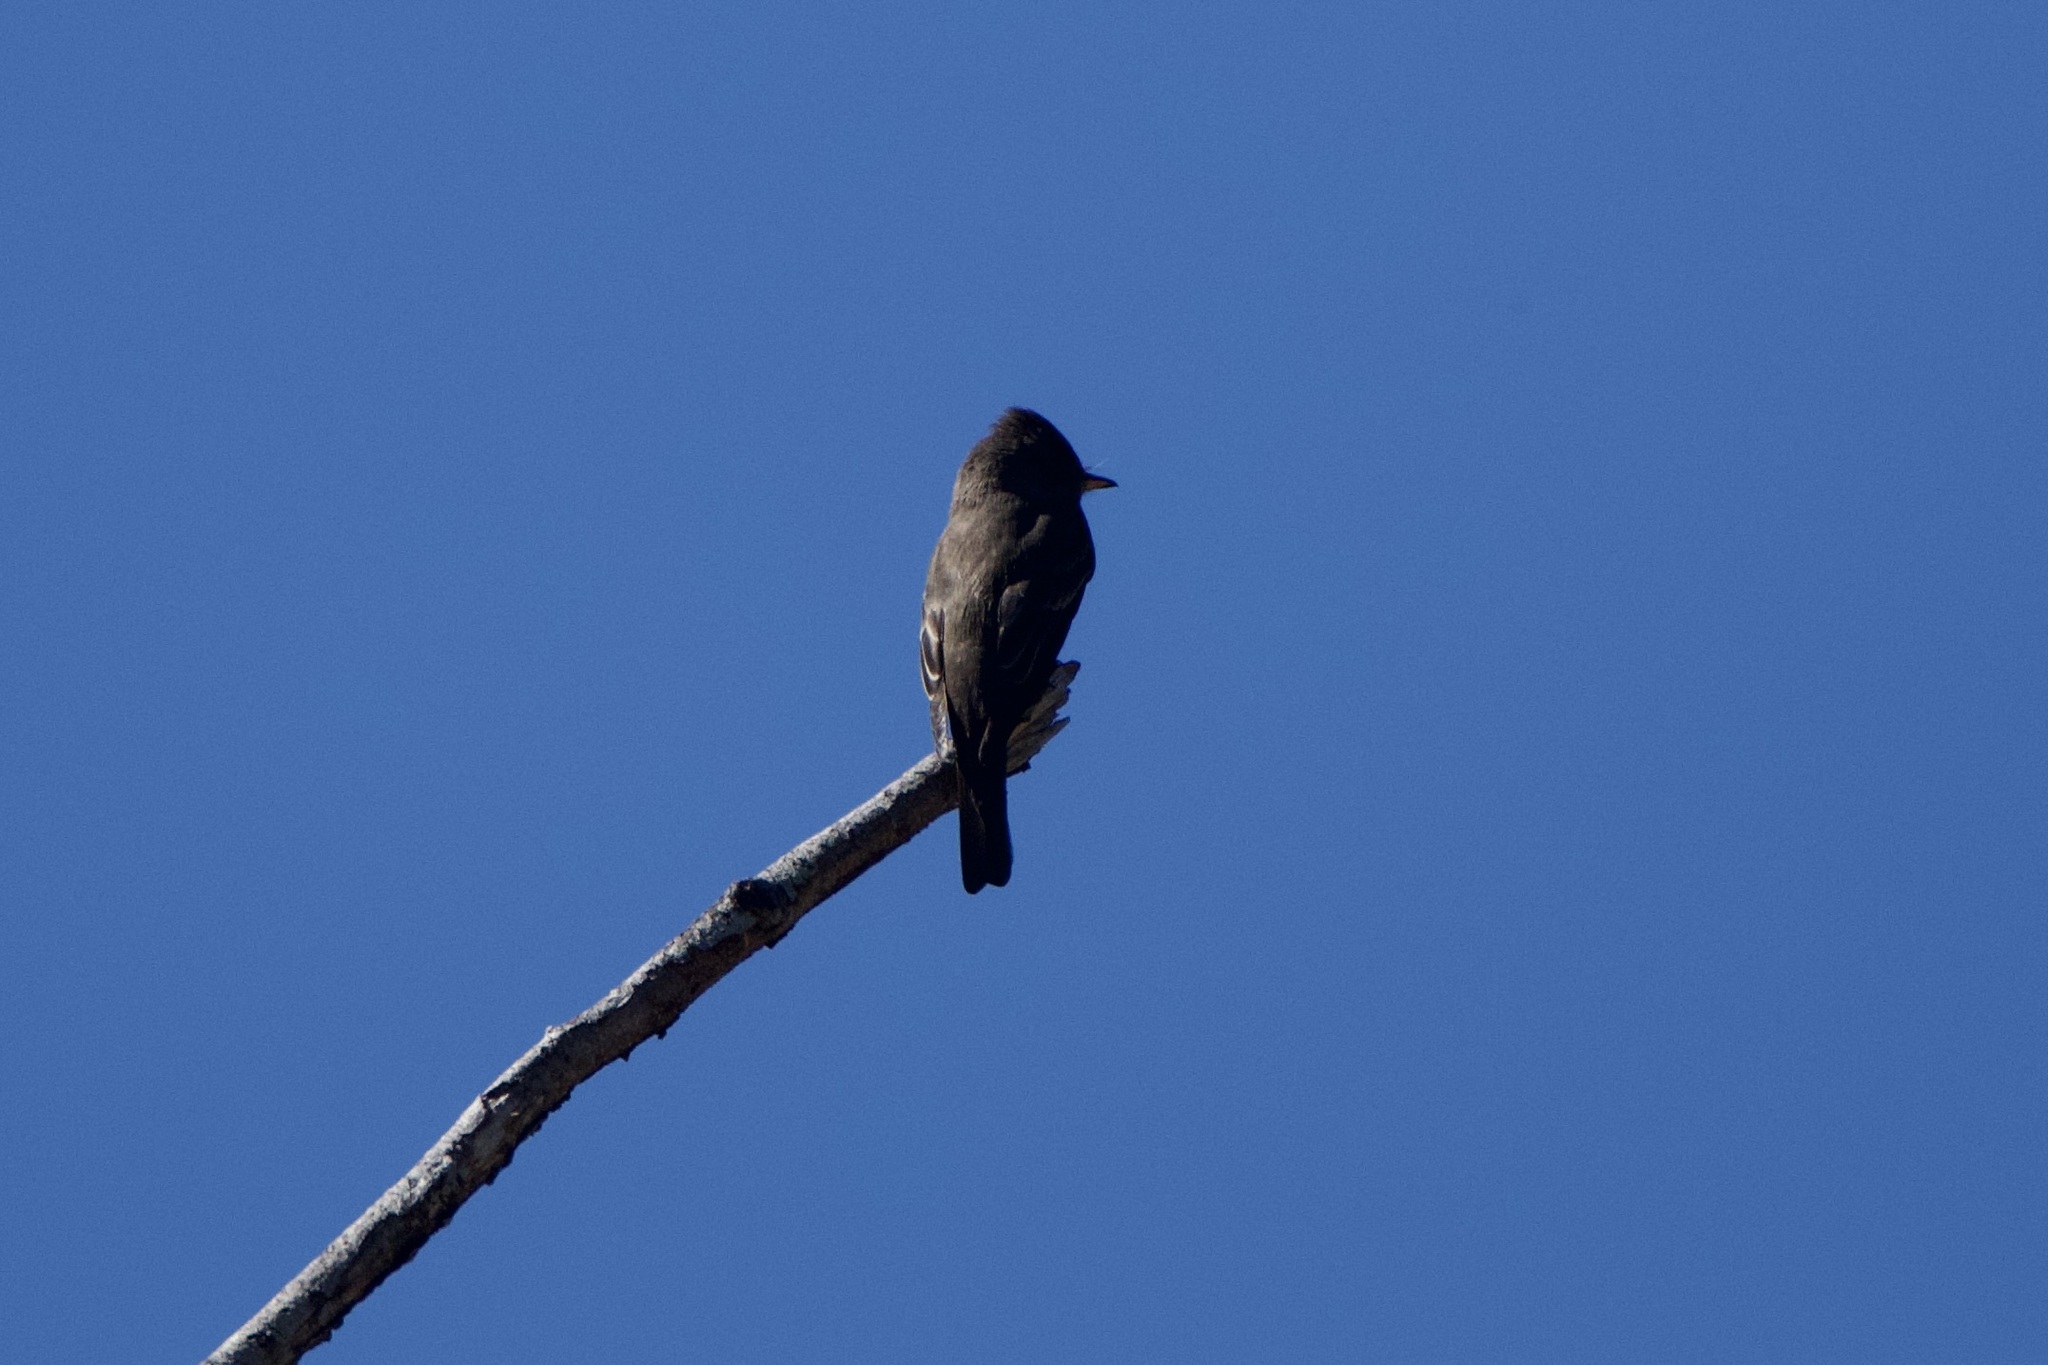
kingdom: Animalia
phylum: Chordata
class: Aves
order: Passeriformes
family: Tyrannidae
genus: Contopus
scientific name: Contopus sordidulus
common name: Western wood-pewee
